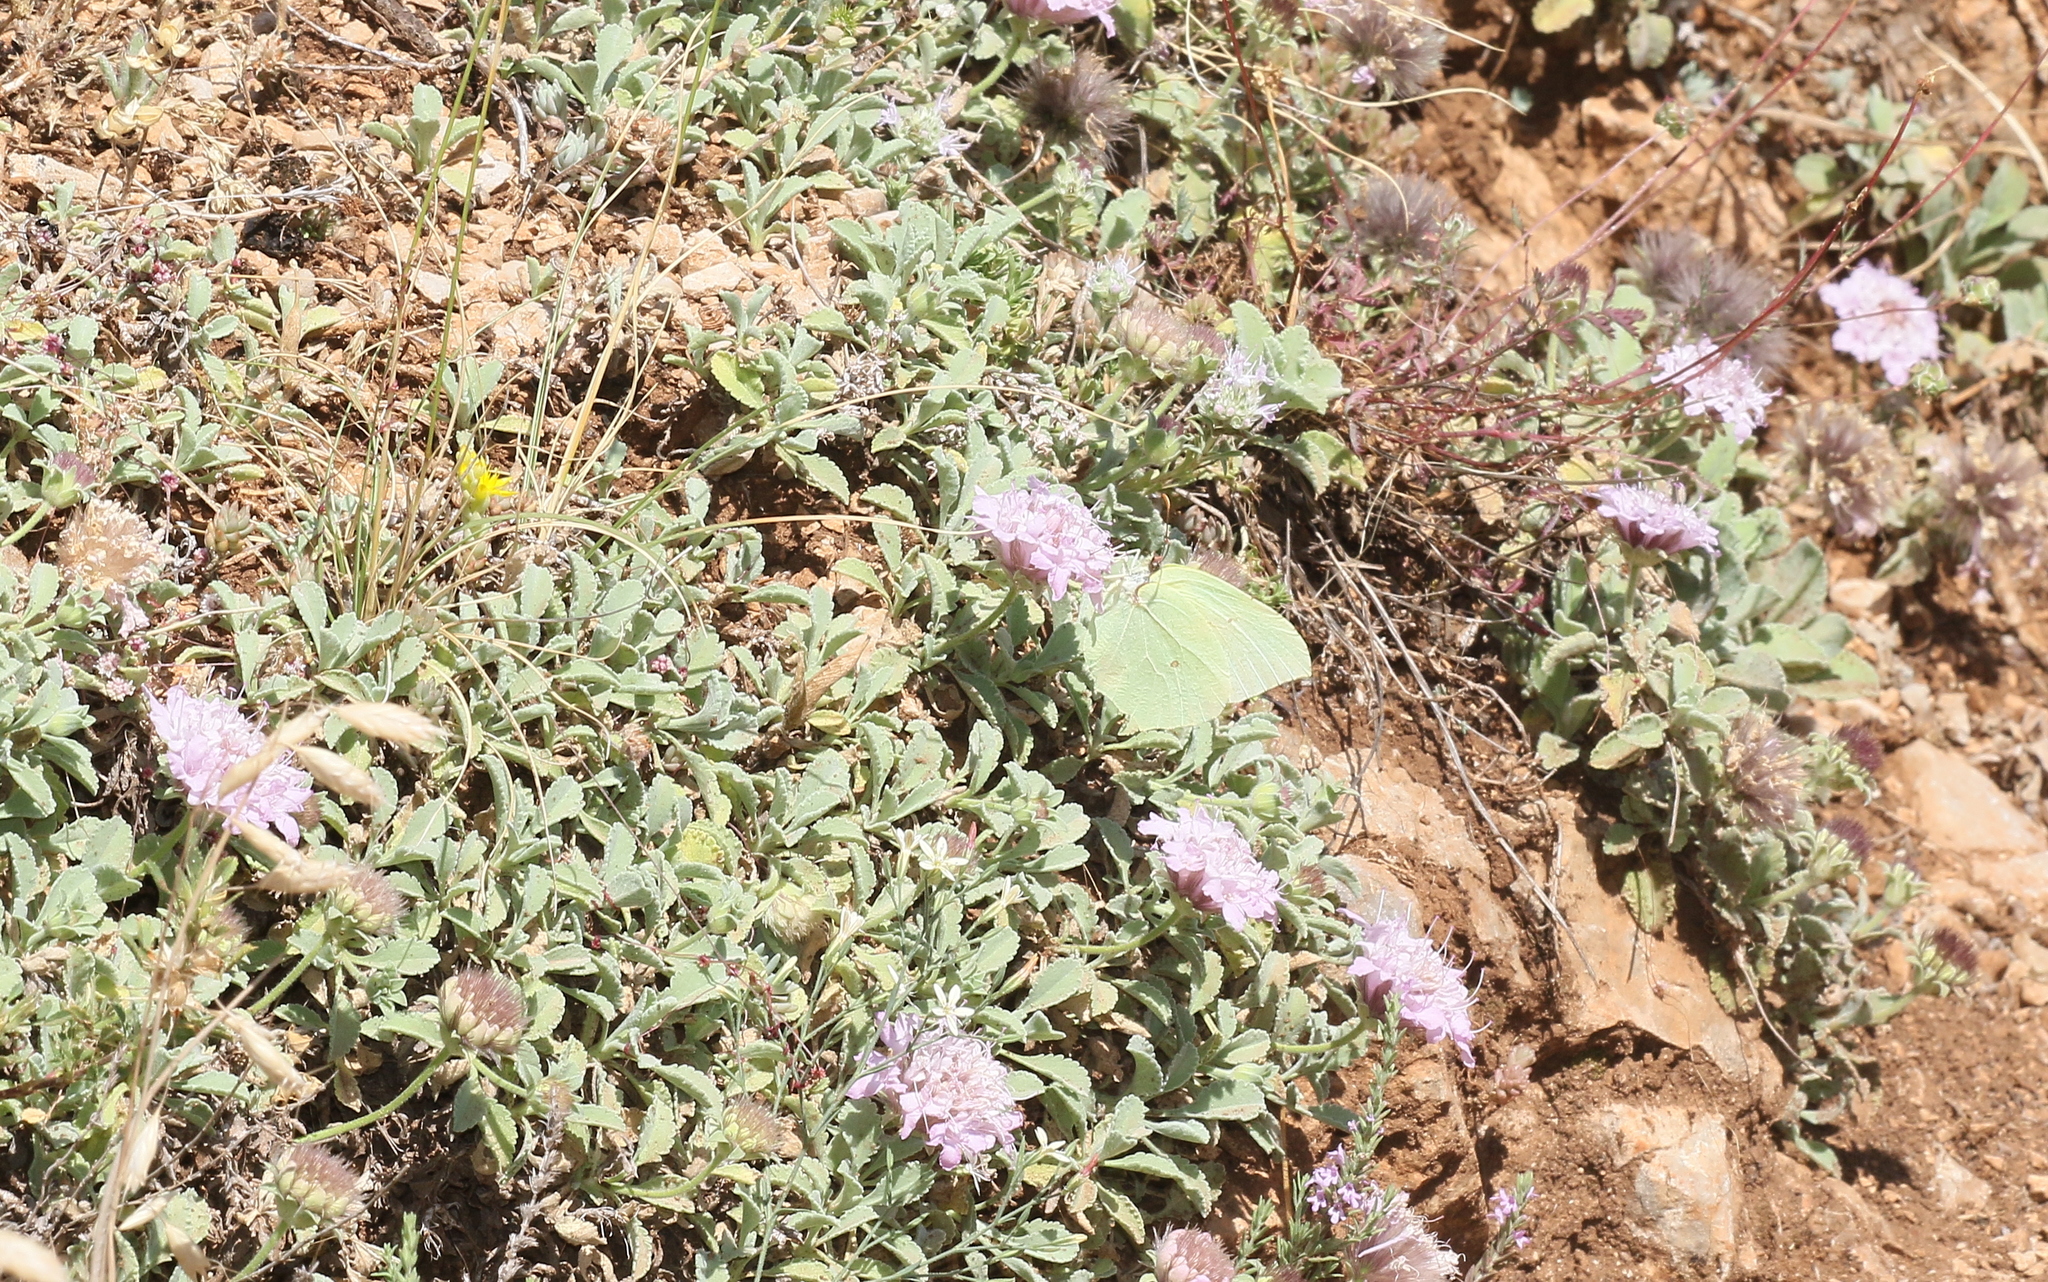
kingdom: Animalia
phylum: Arthropoda
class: Insecta
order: Lepidoptera
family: Pieridae
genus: Gonepteryx
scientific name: Gonepteryx rhamni
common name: Brimstone
